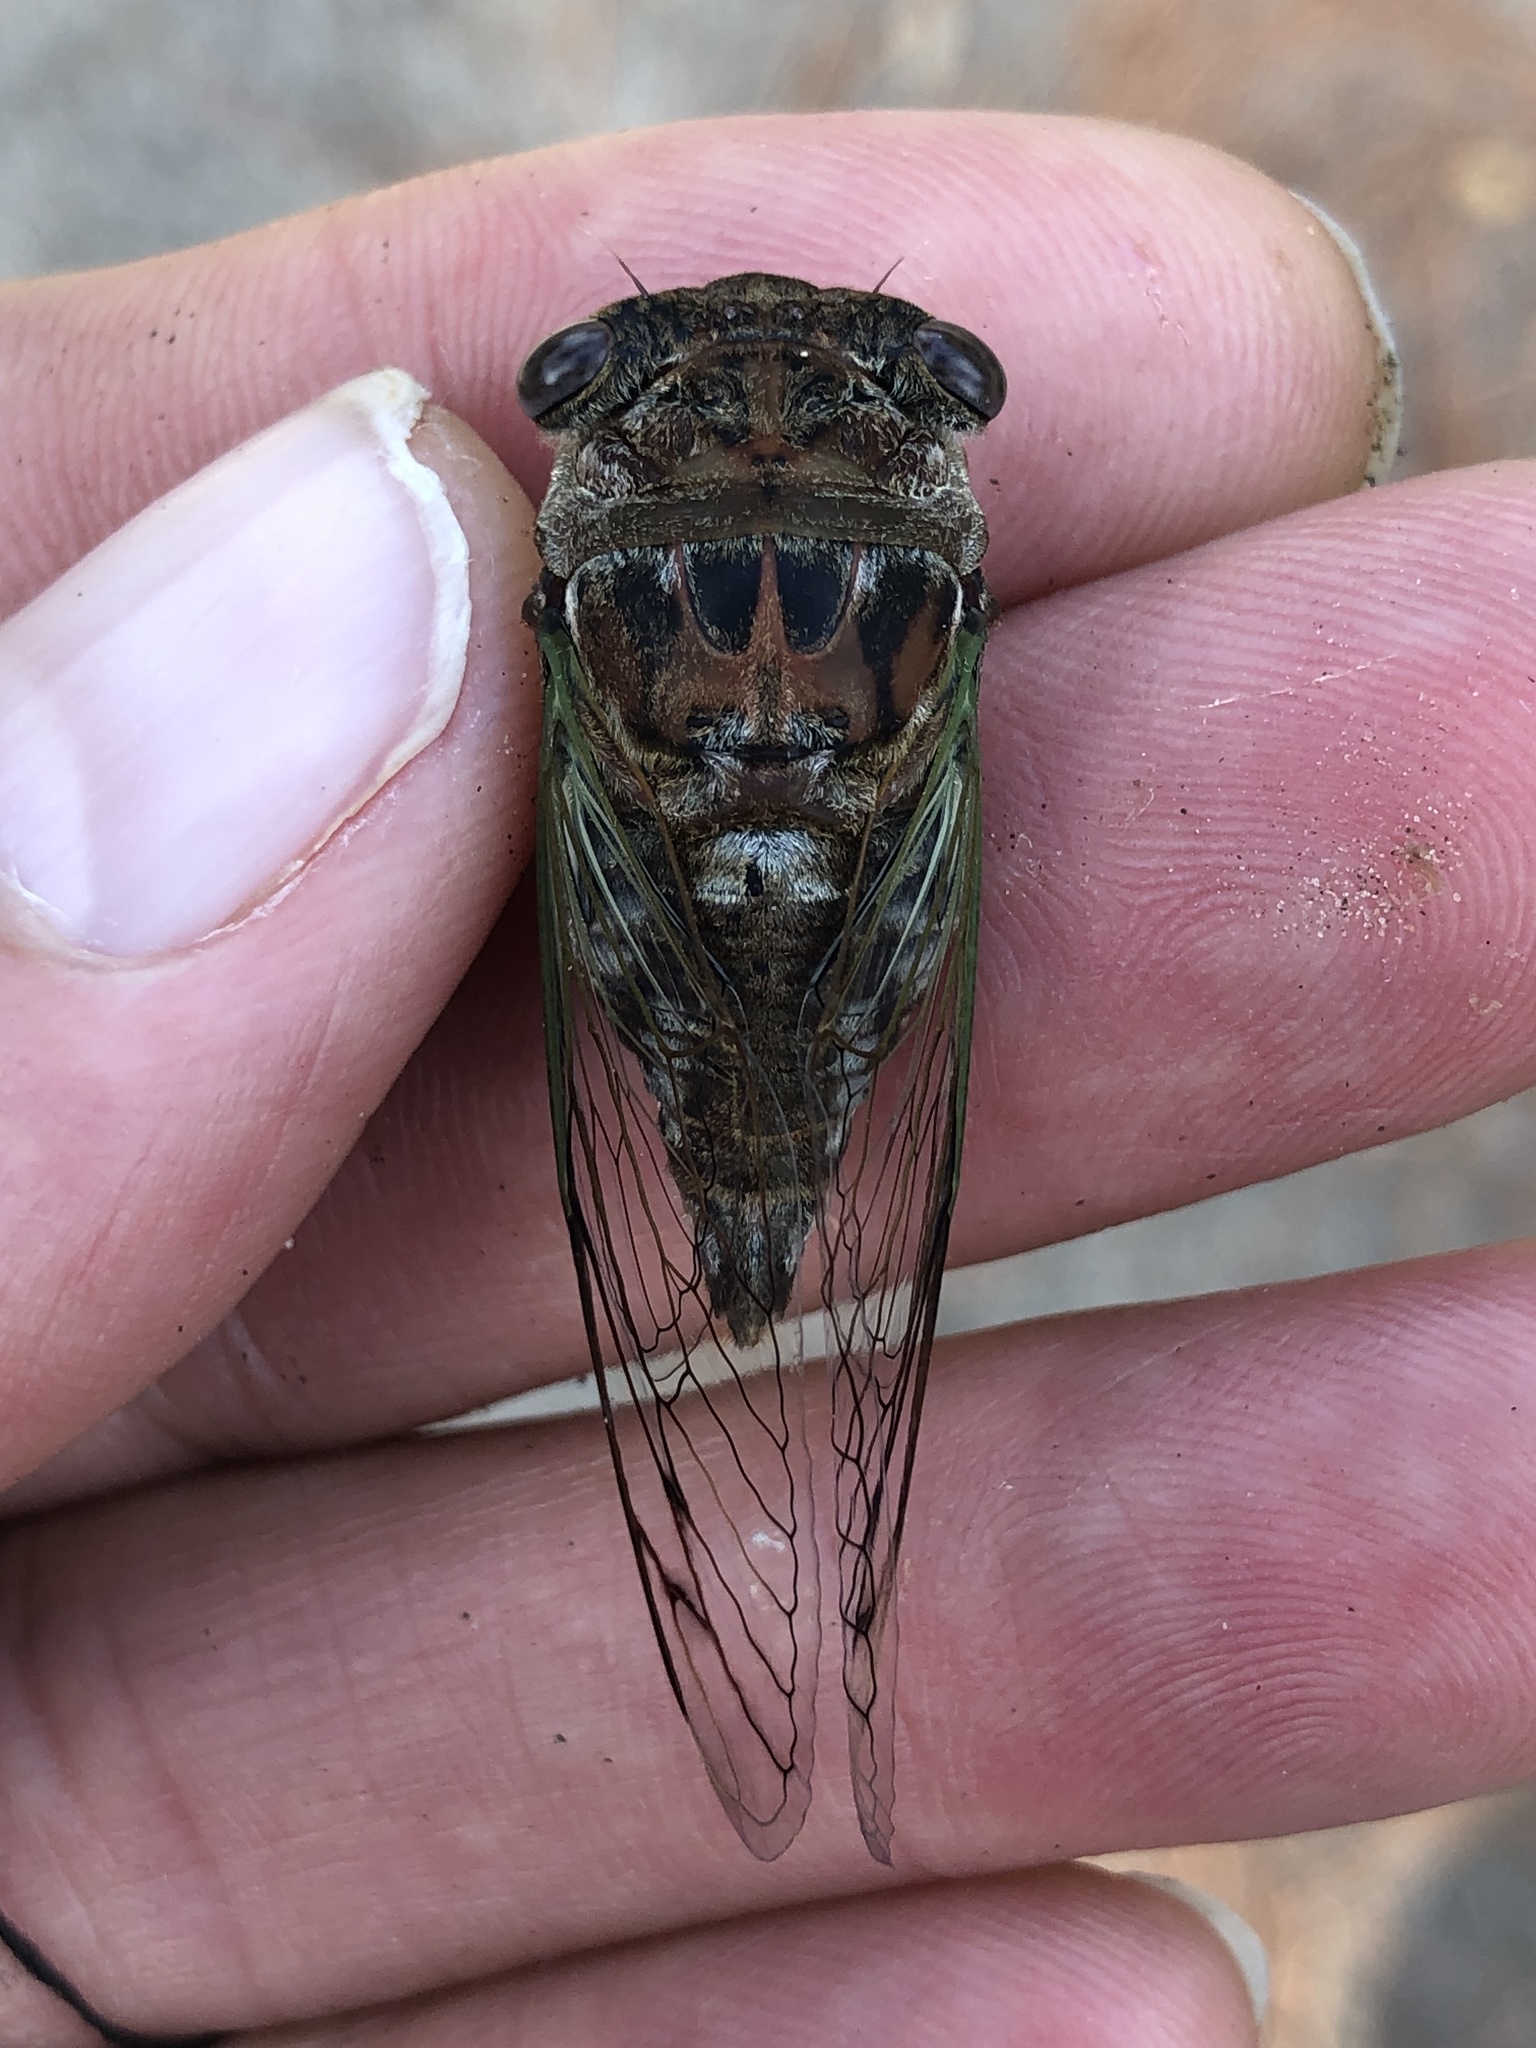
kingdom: Animalia
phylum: Arthropoda
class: Insecta
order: Hemiptera
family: Cicadidae
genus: Neotibicen
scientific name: Neotibicen davisi
